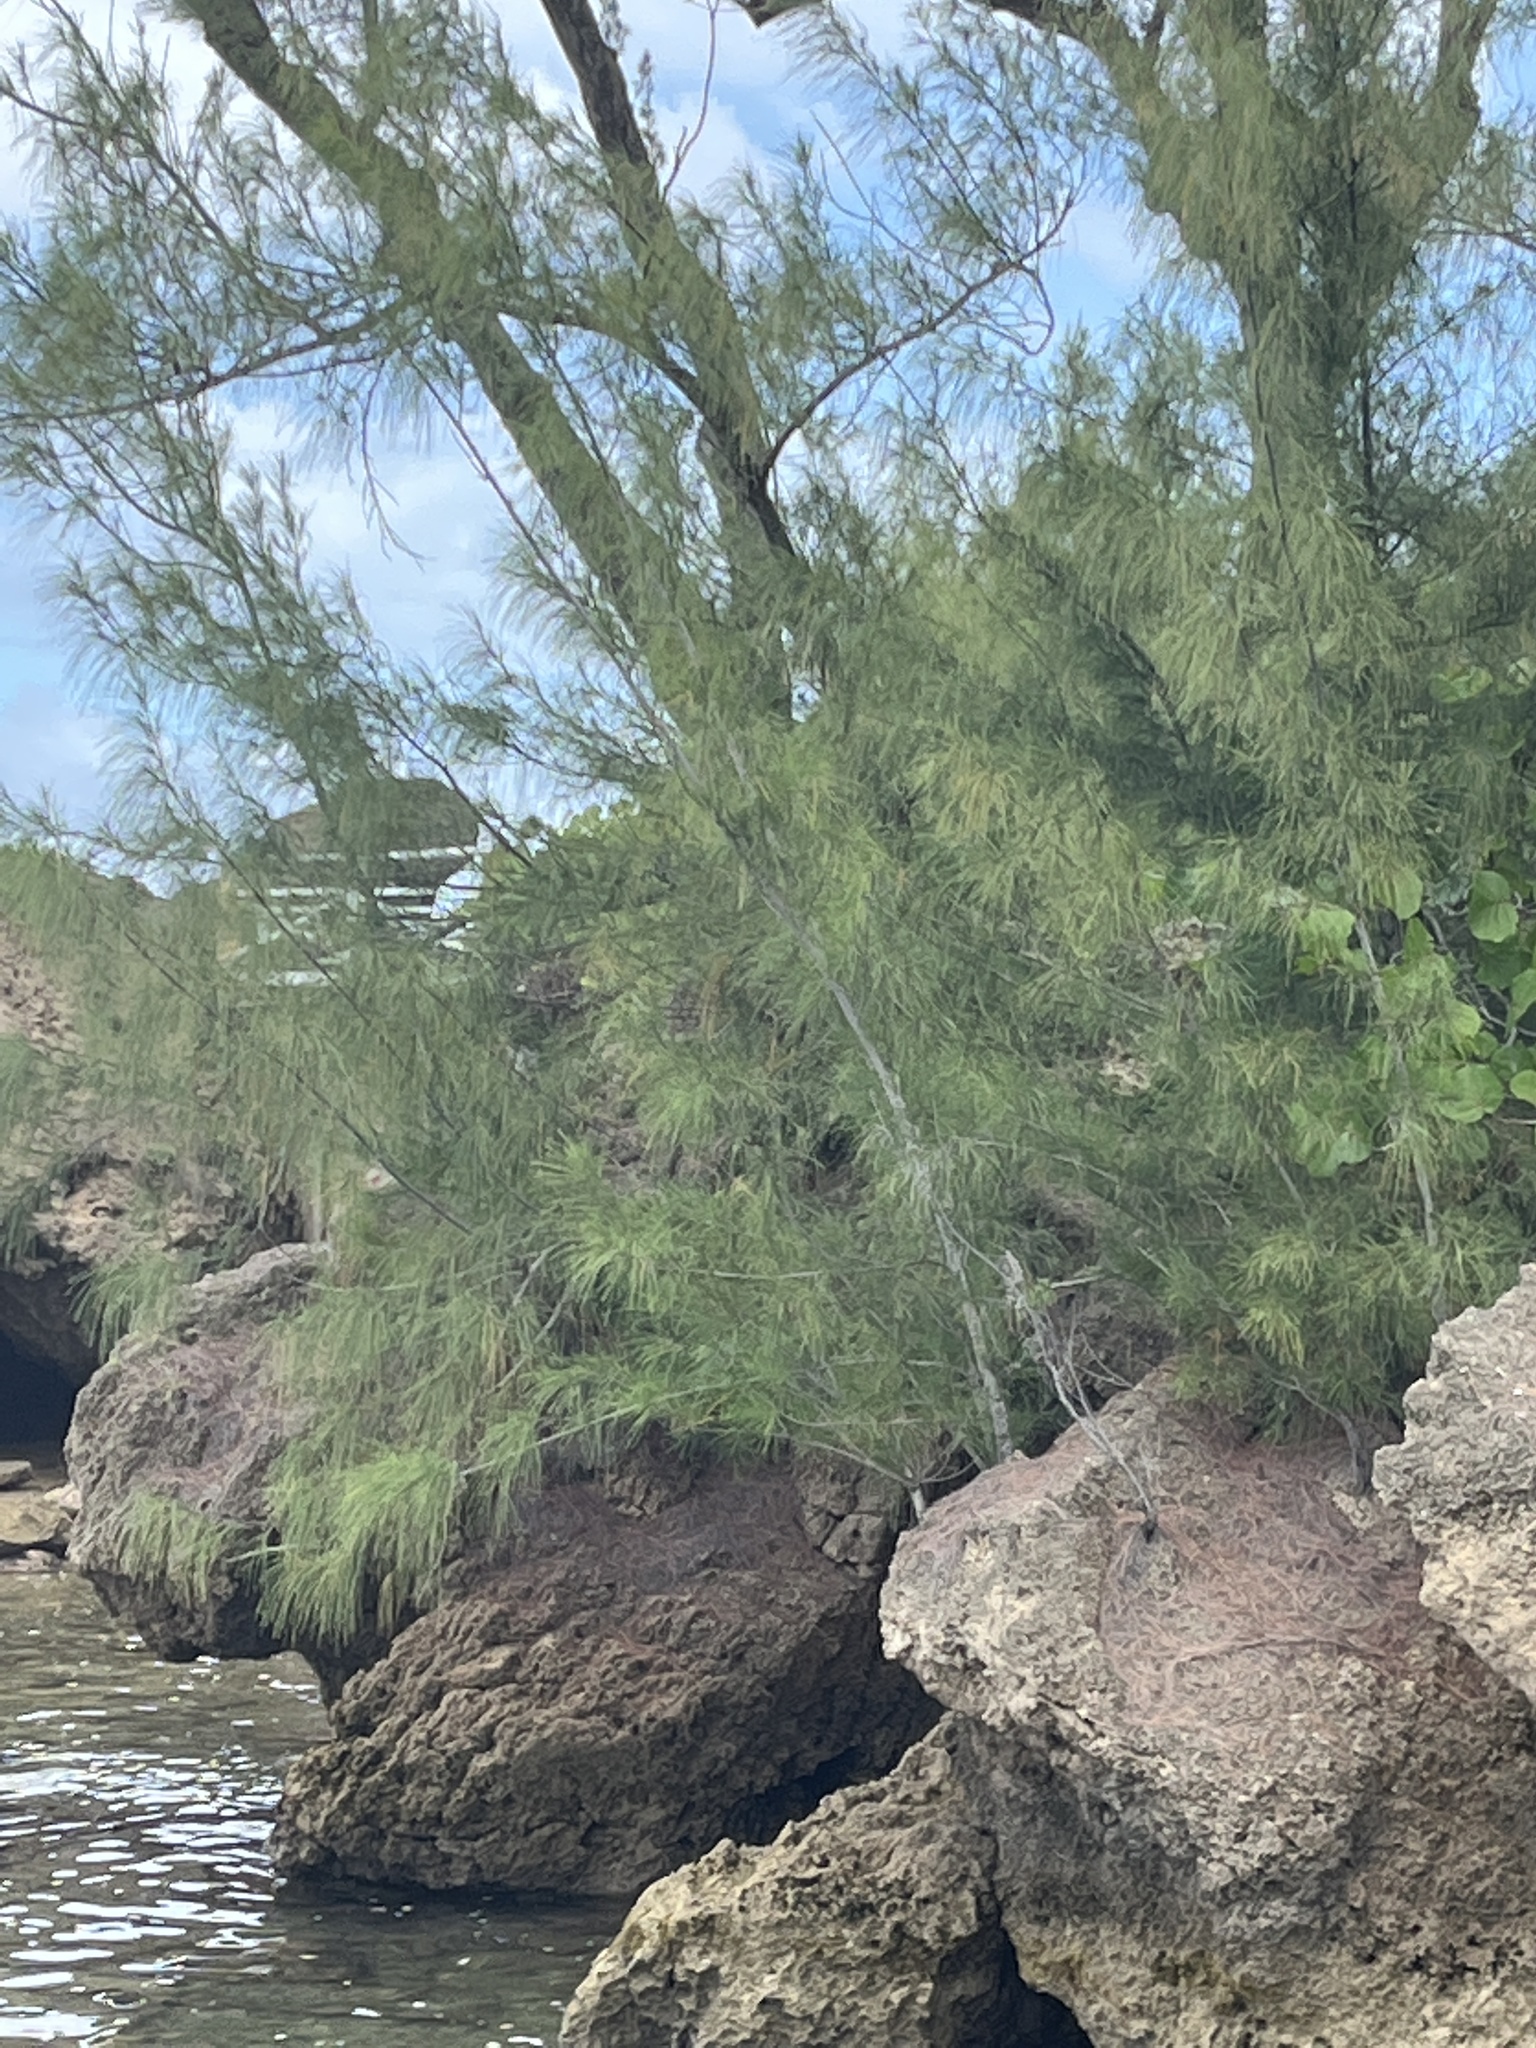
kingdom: Plantae
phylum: Tracheophyta
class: Magnoliopsida
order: Fagales
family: Casuarinaceae
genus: Casuarina
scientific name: Casuarina equisetifolia
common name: Beach sheoak
